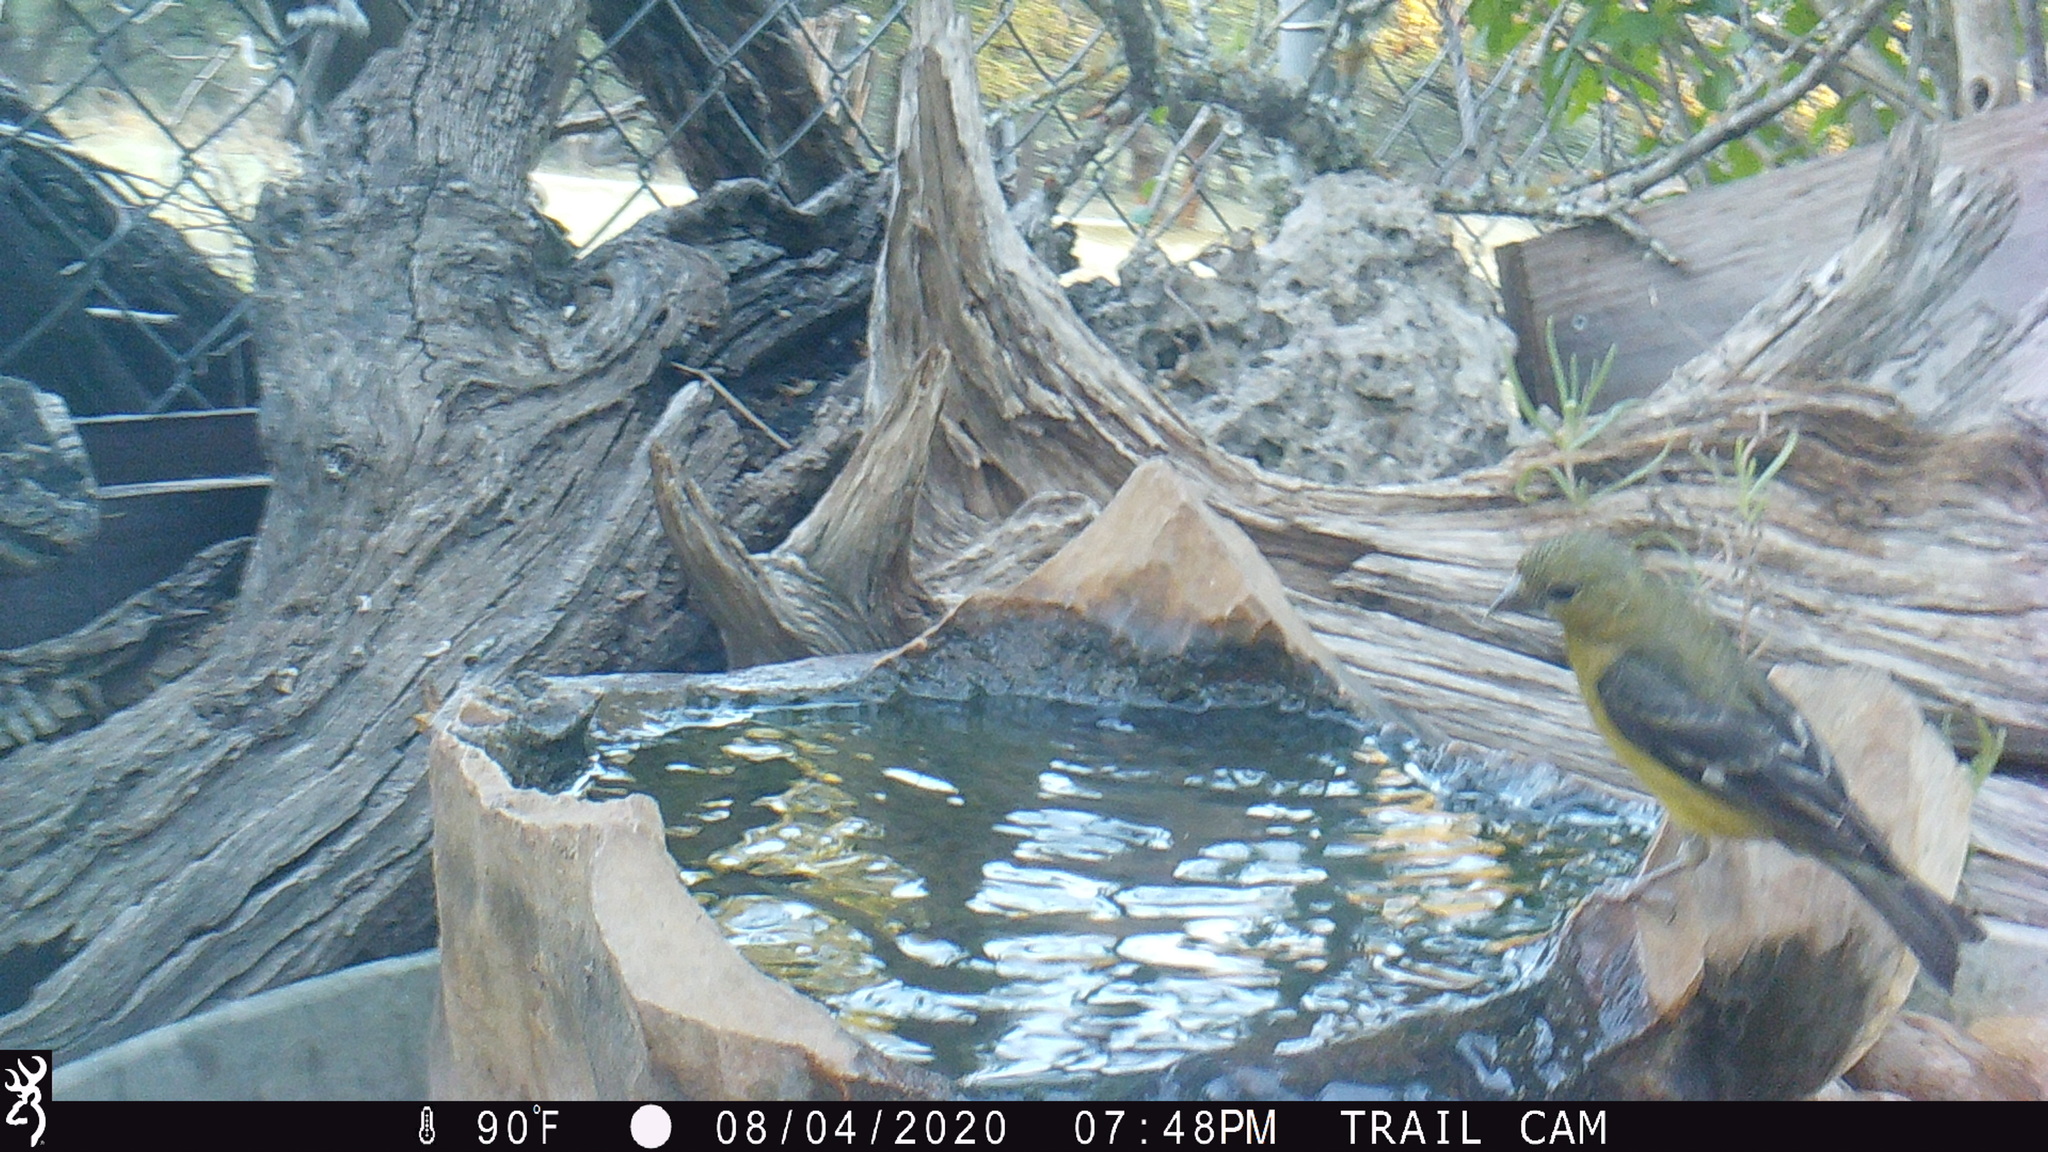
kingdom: Animalia
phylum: Chordata
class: Aves
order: Passeriformes
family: Fringillidae
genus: Spinus
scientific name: Spinus psaltria
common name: Lesser goldfinch
